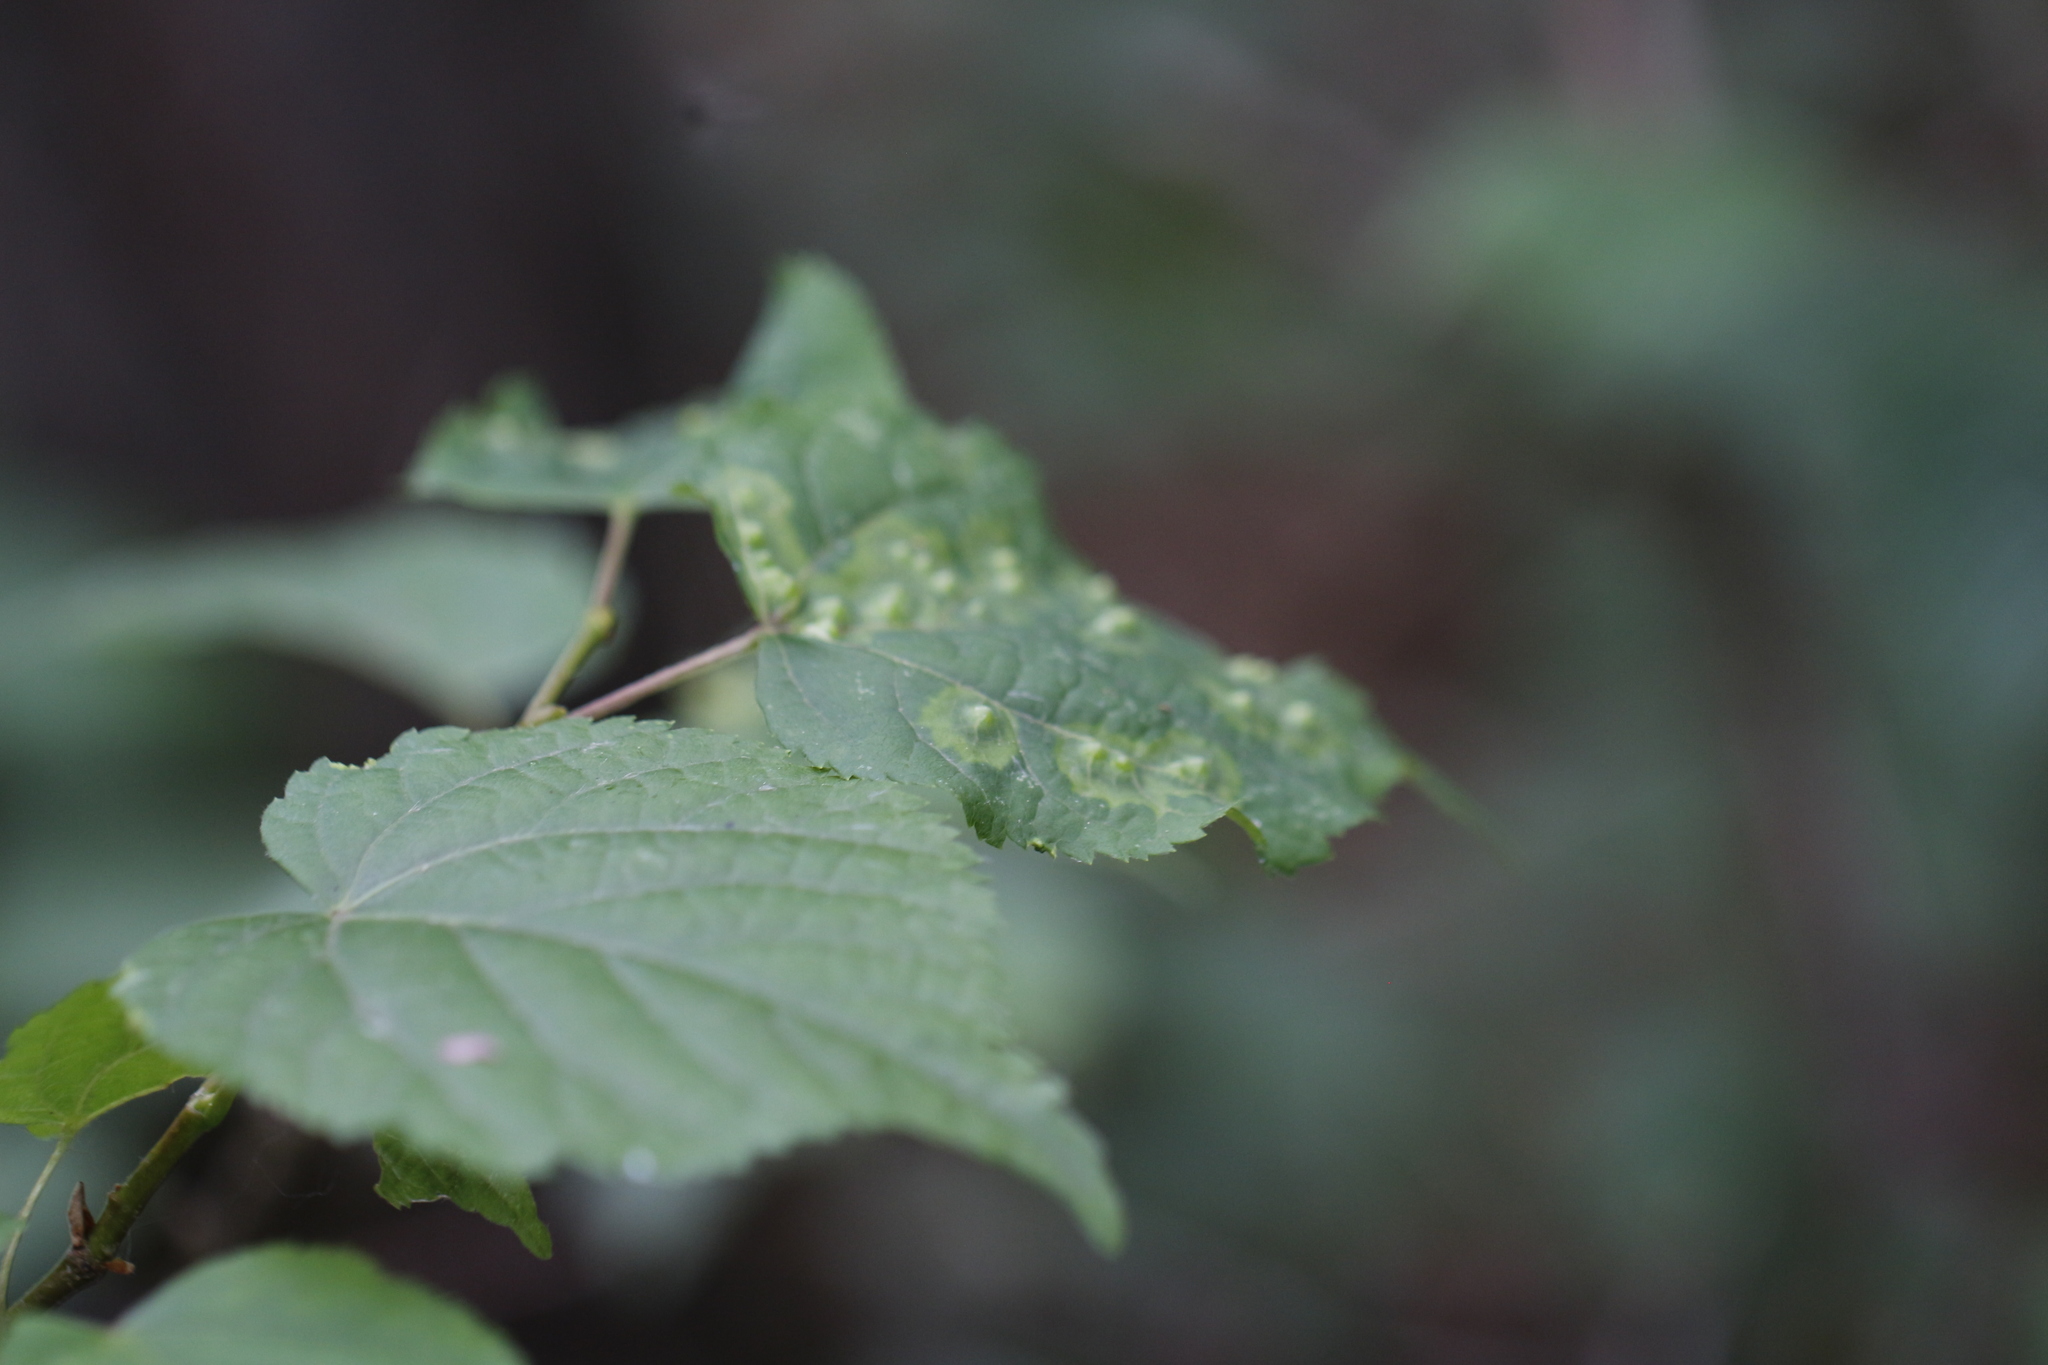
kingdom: Animalia
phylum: Arthropoda
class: Insecta
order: Diptera
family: Cecidomyiidae
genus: Didymomyia
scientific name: Didymomyia tiliacea
